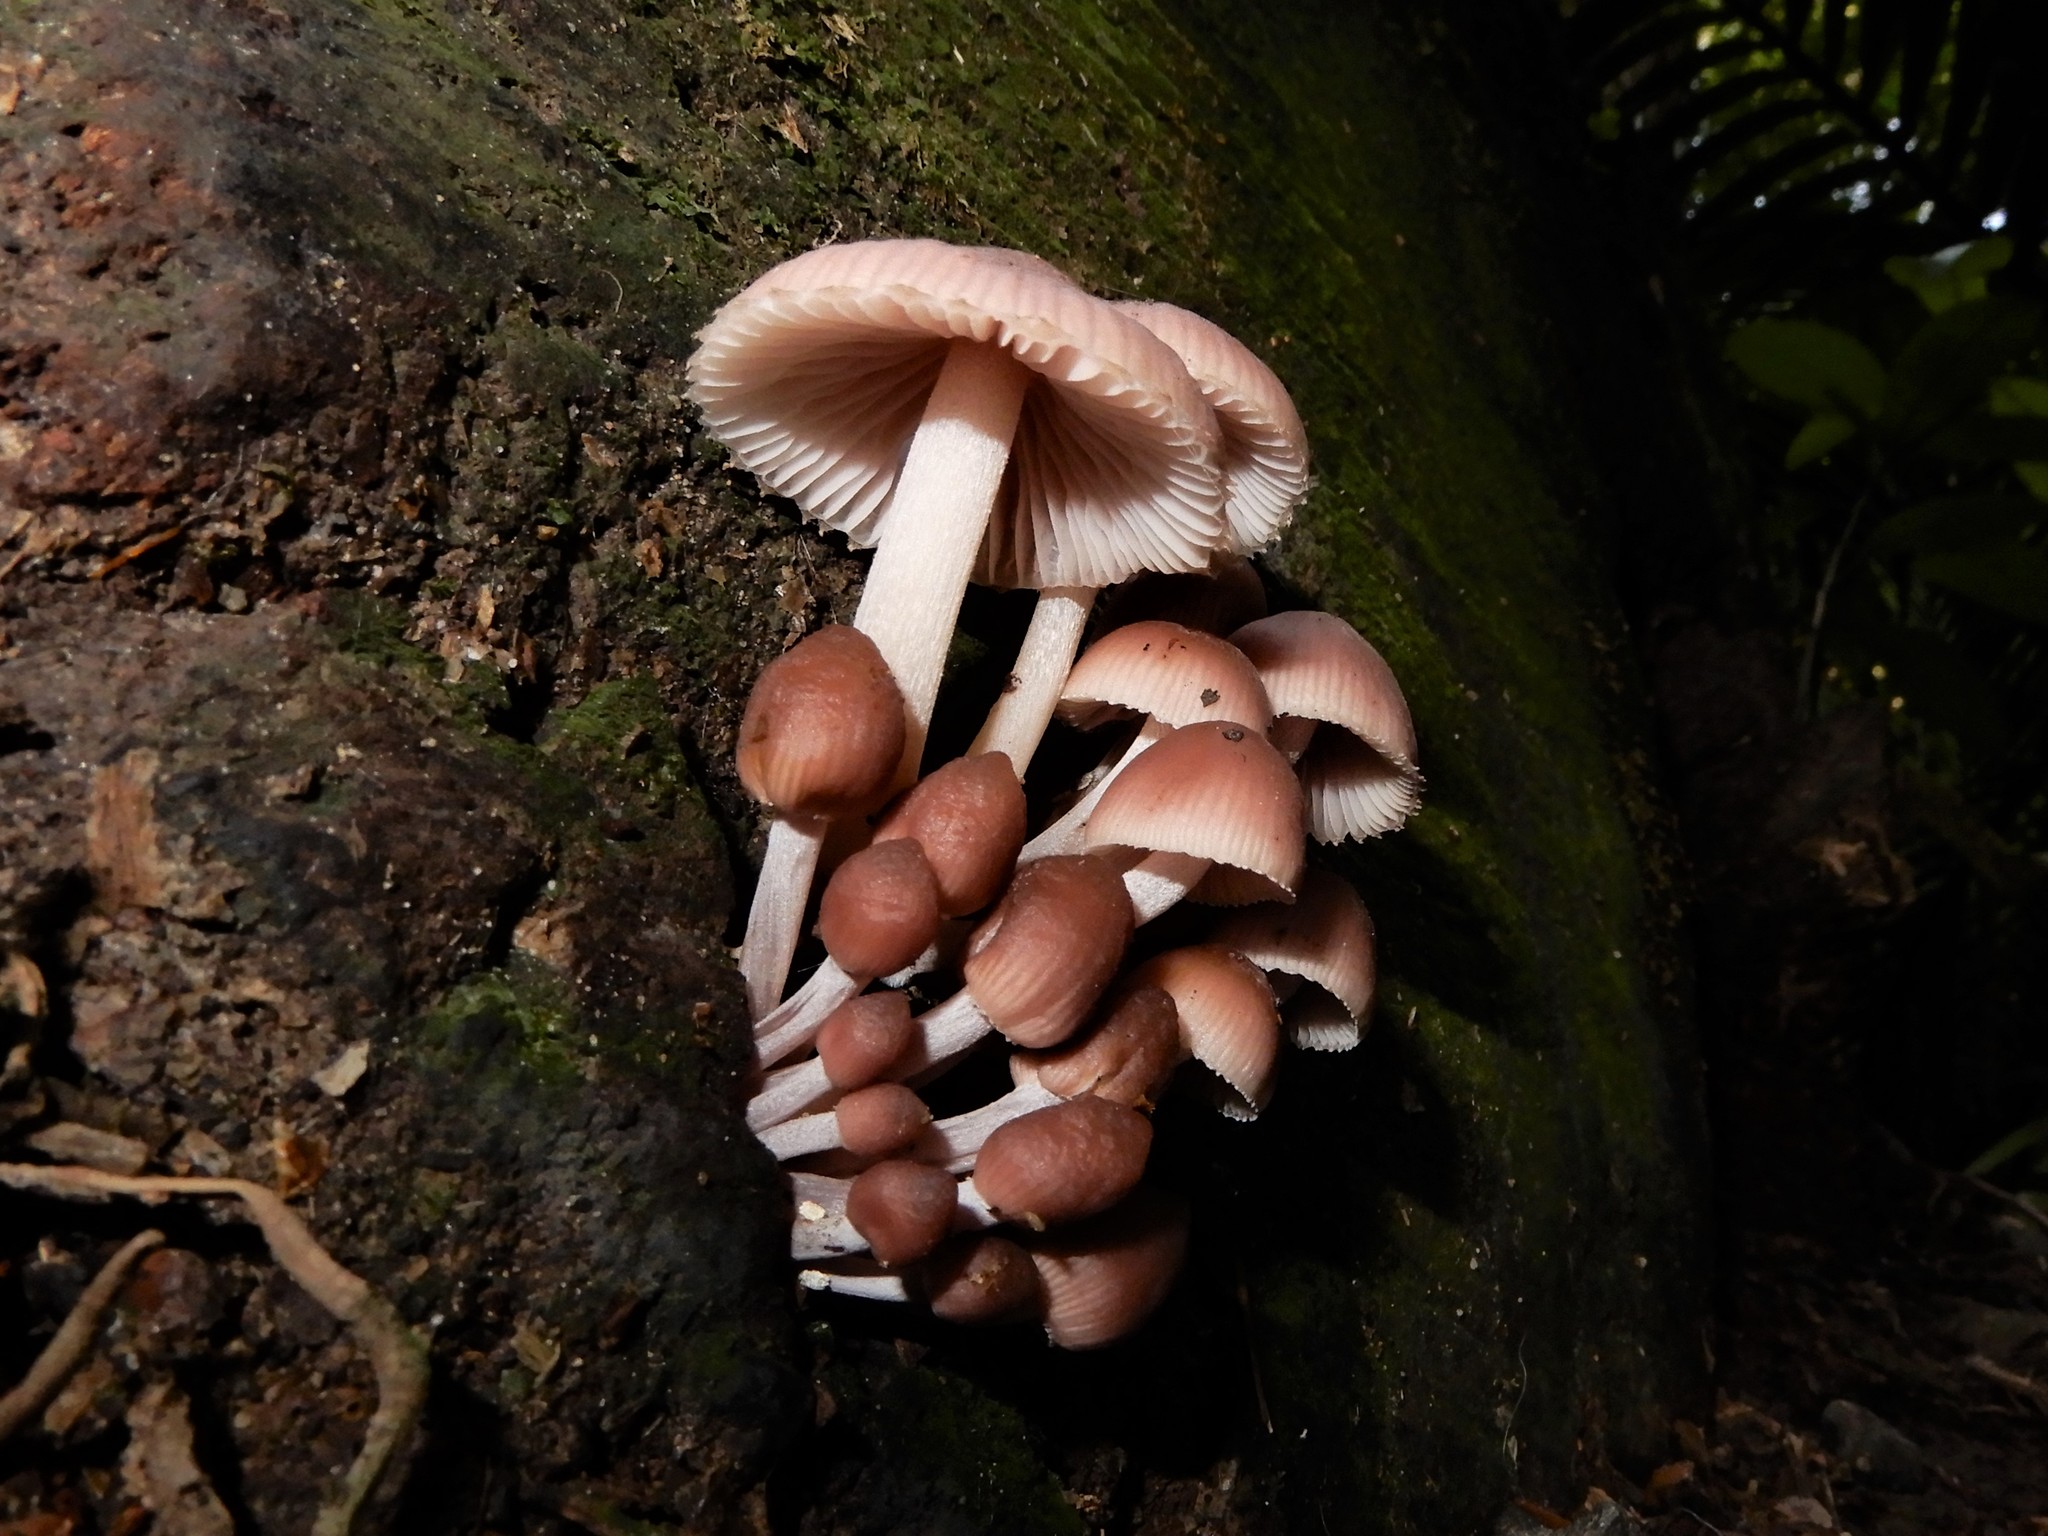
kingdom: Fungi
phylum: Basidiomycota
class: Agaricomycetes
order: Agaricales
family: Mycenaceae
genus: Mycena
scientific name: Mycena clarkeana
